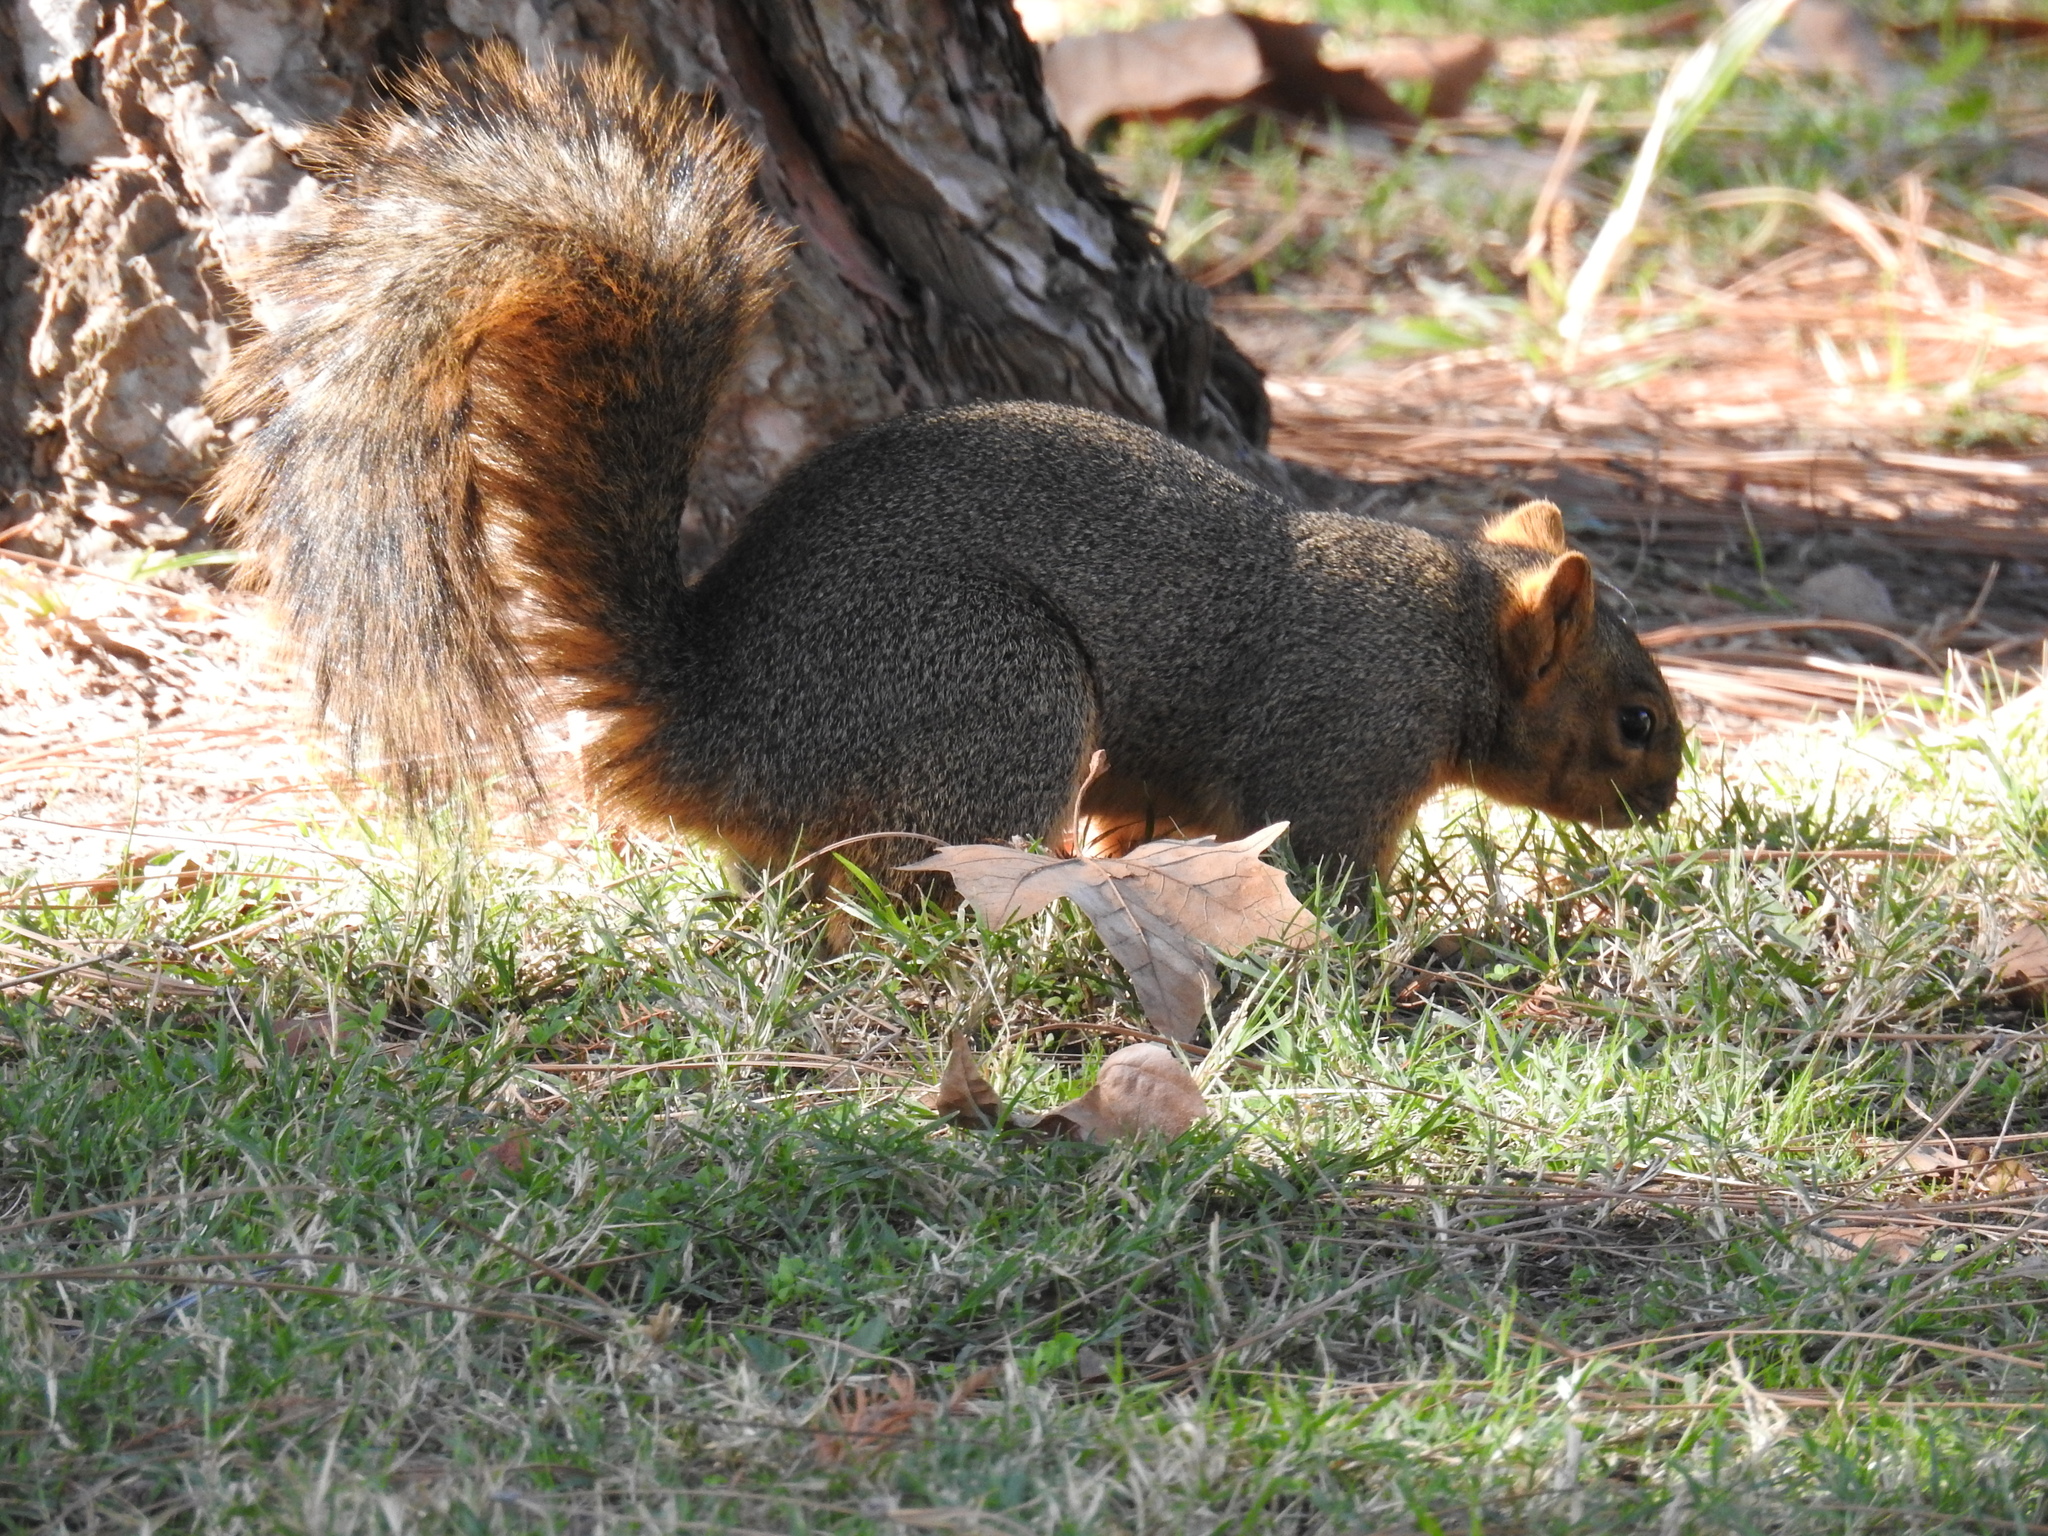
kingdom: Animalia
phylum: Chordata
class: Mammalia
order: Rodentia
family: Sciuridae
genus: Sciurus
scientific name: Sciurus niger
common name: Fox squirrel
